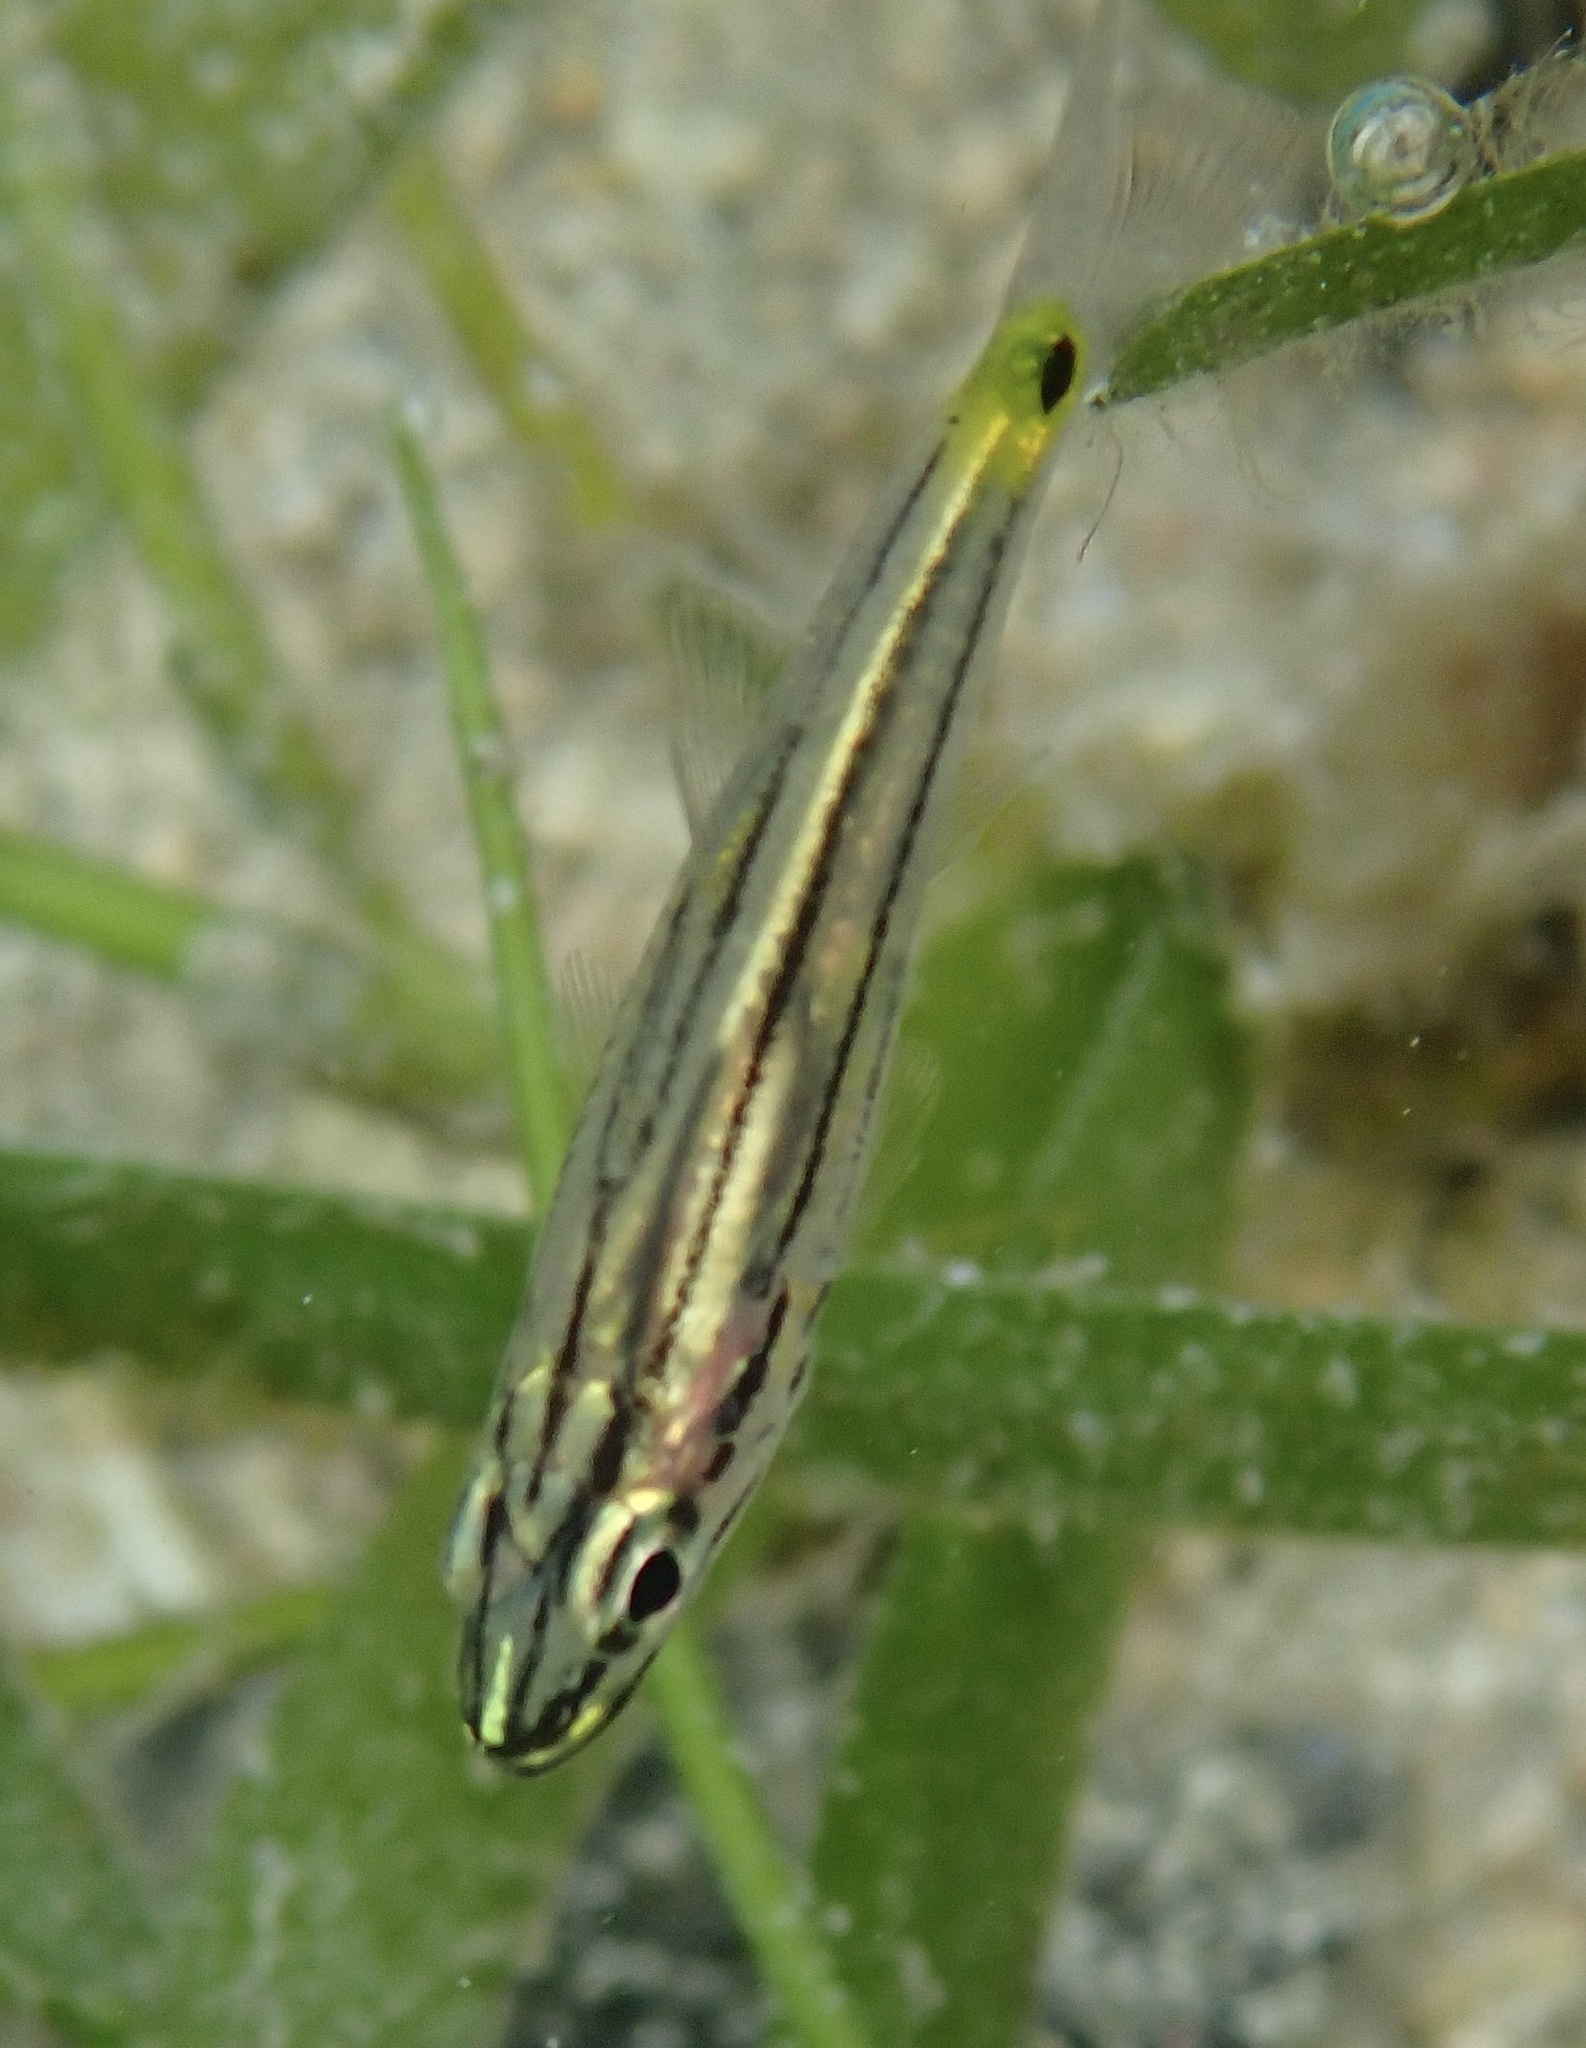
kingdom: Animalia
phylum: Chordata
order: Perciformes
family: Apogonidae
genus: Cheilodipterus
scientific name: Cheilodipterus quinquelineatus
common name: Five-lined cardinalfish
